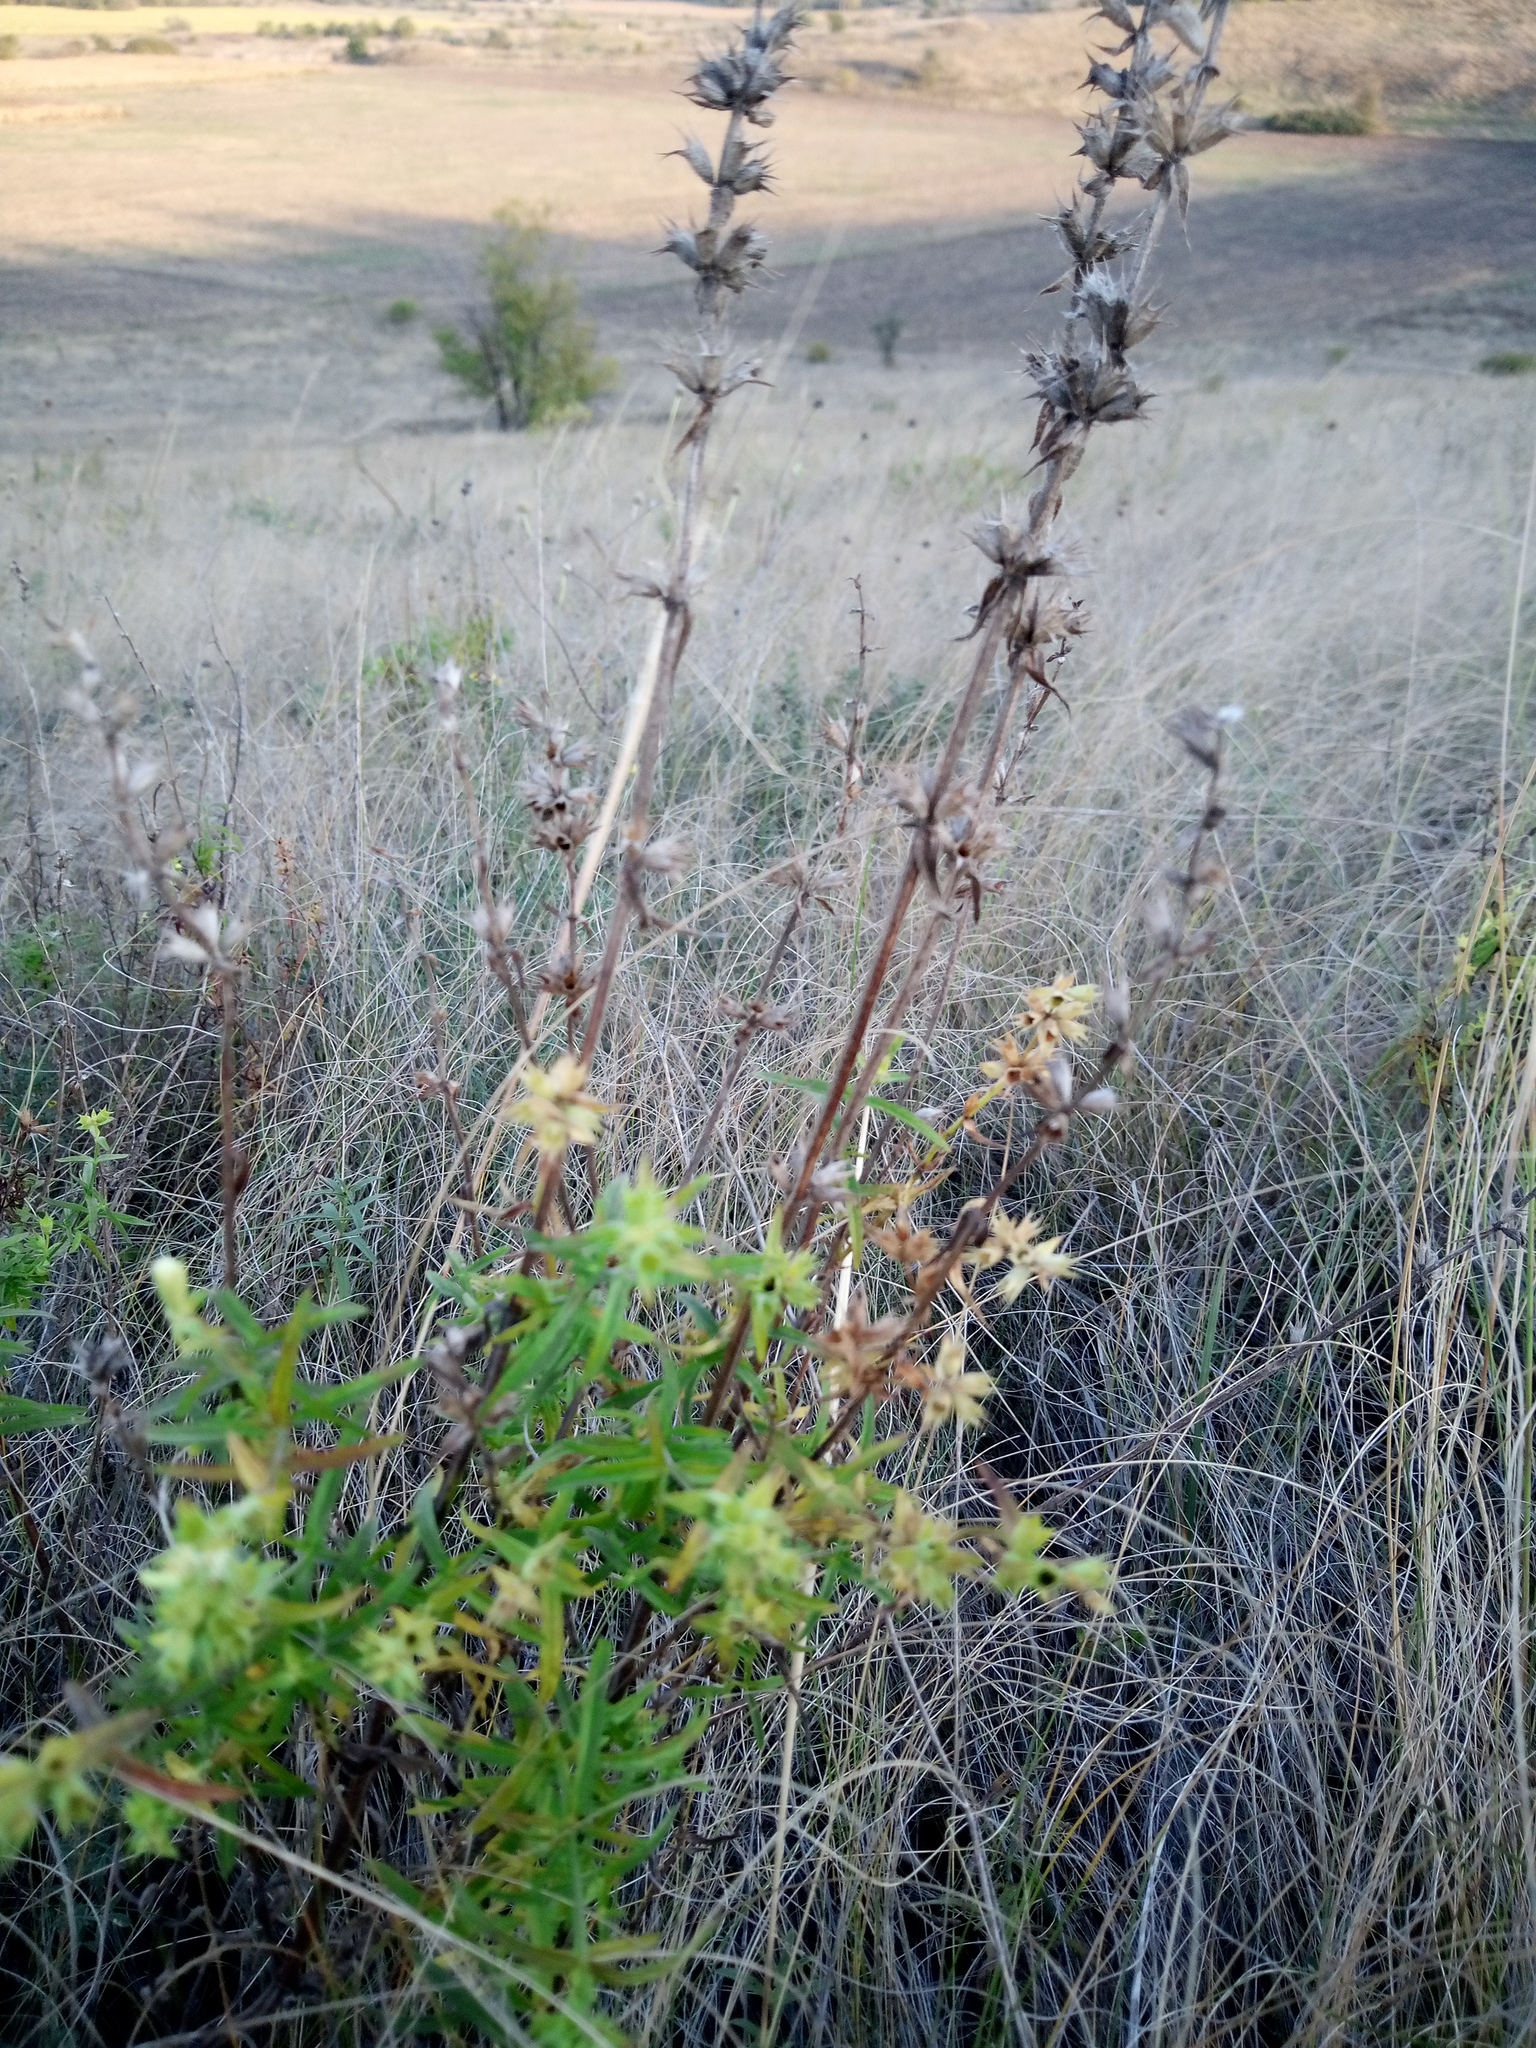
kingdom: Plantae
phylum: Tracheophyta
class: Magnoliopsida
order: Lamiales
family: Lamiaceae
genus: Stachys
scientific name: Stachys recta
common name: Perennial yellow-woundwort
